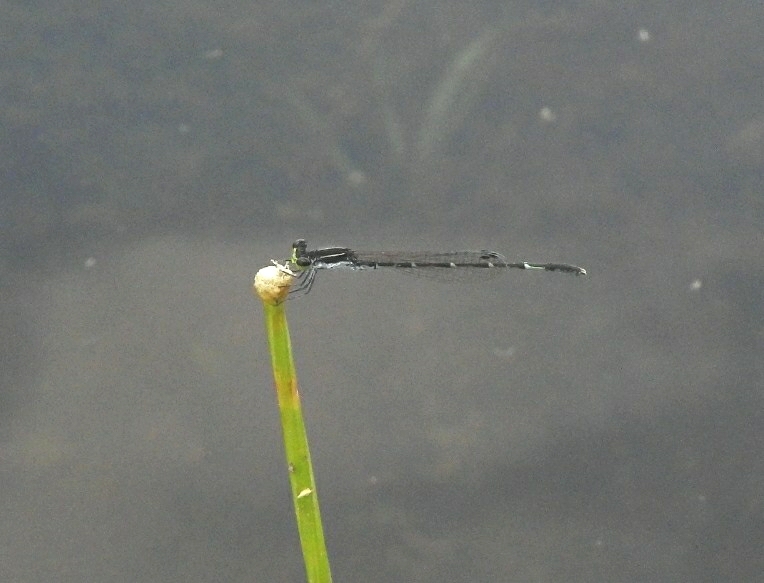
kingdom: Animalia
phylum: Arthropoda
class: Insecta
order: Odonata
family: Coenagrionidae
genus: Agriocnemis
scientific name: Agriocnemis splendidissima
